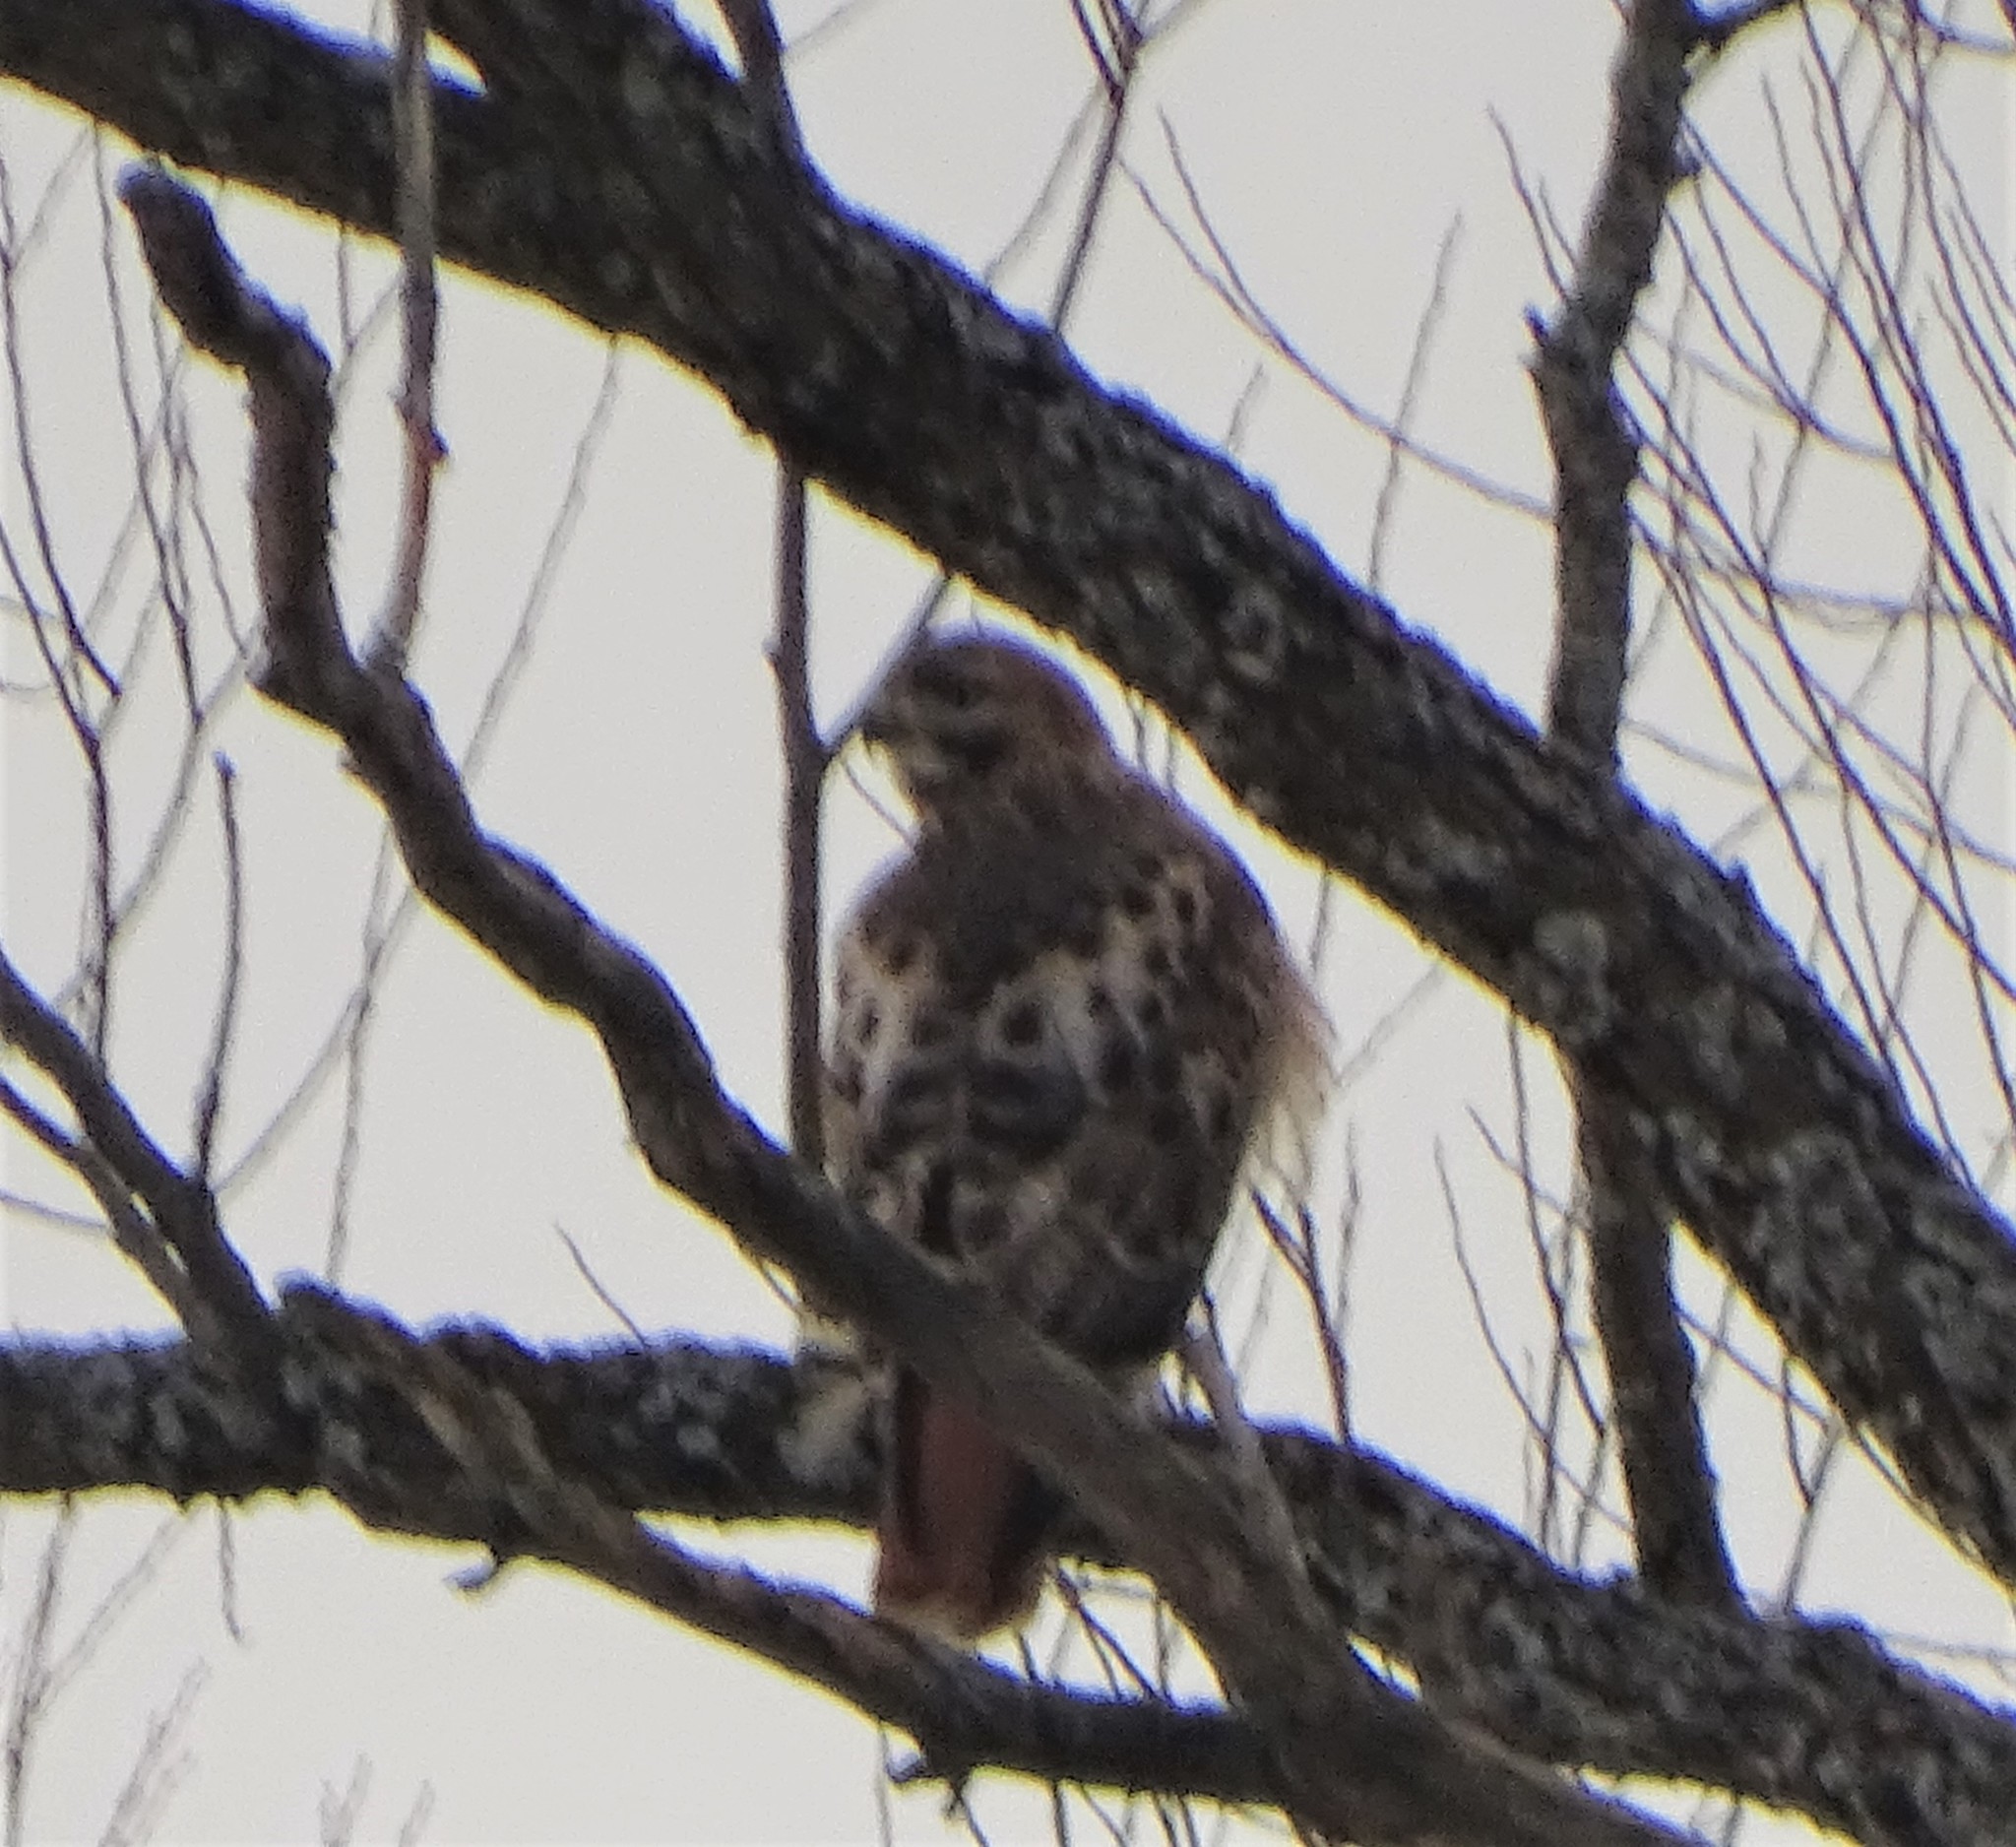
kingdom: Animalia
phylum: Chordata
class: Aves
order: Accipitriformes
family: Accipitridae
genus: Buteo
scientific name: Buteo jamaicensis
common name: Red-tailed hawk
